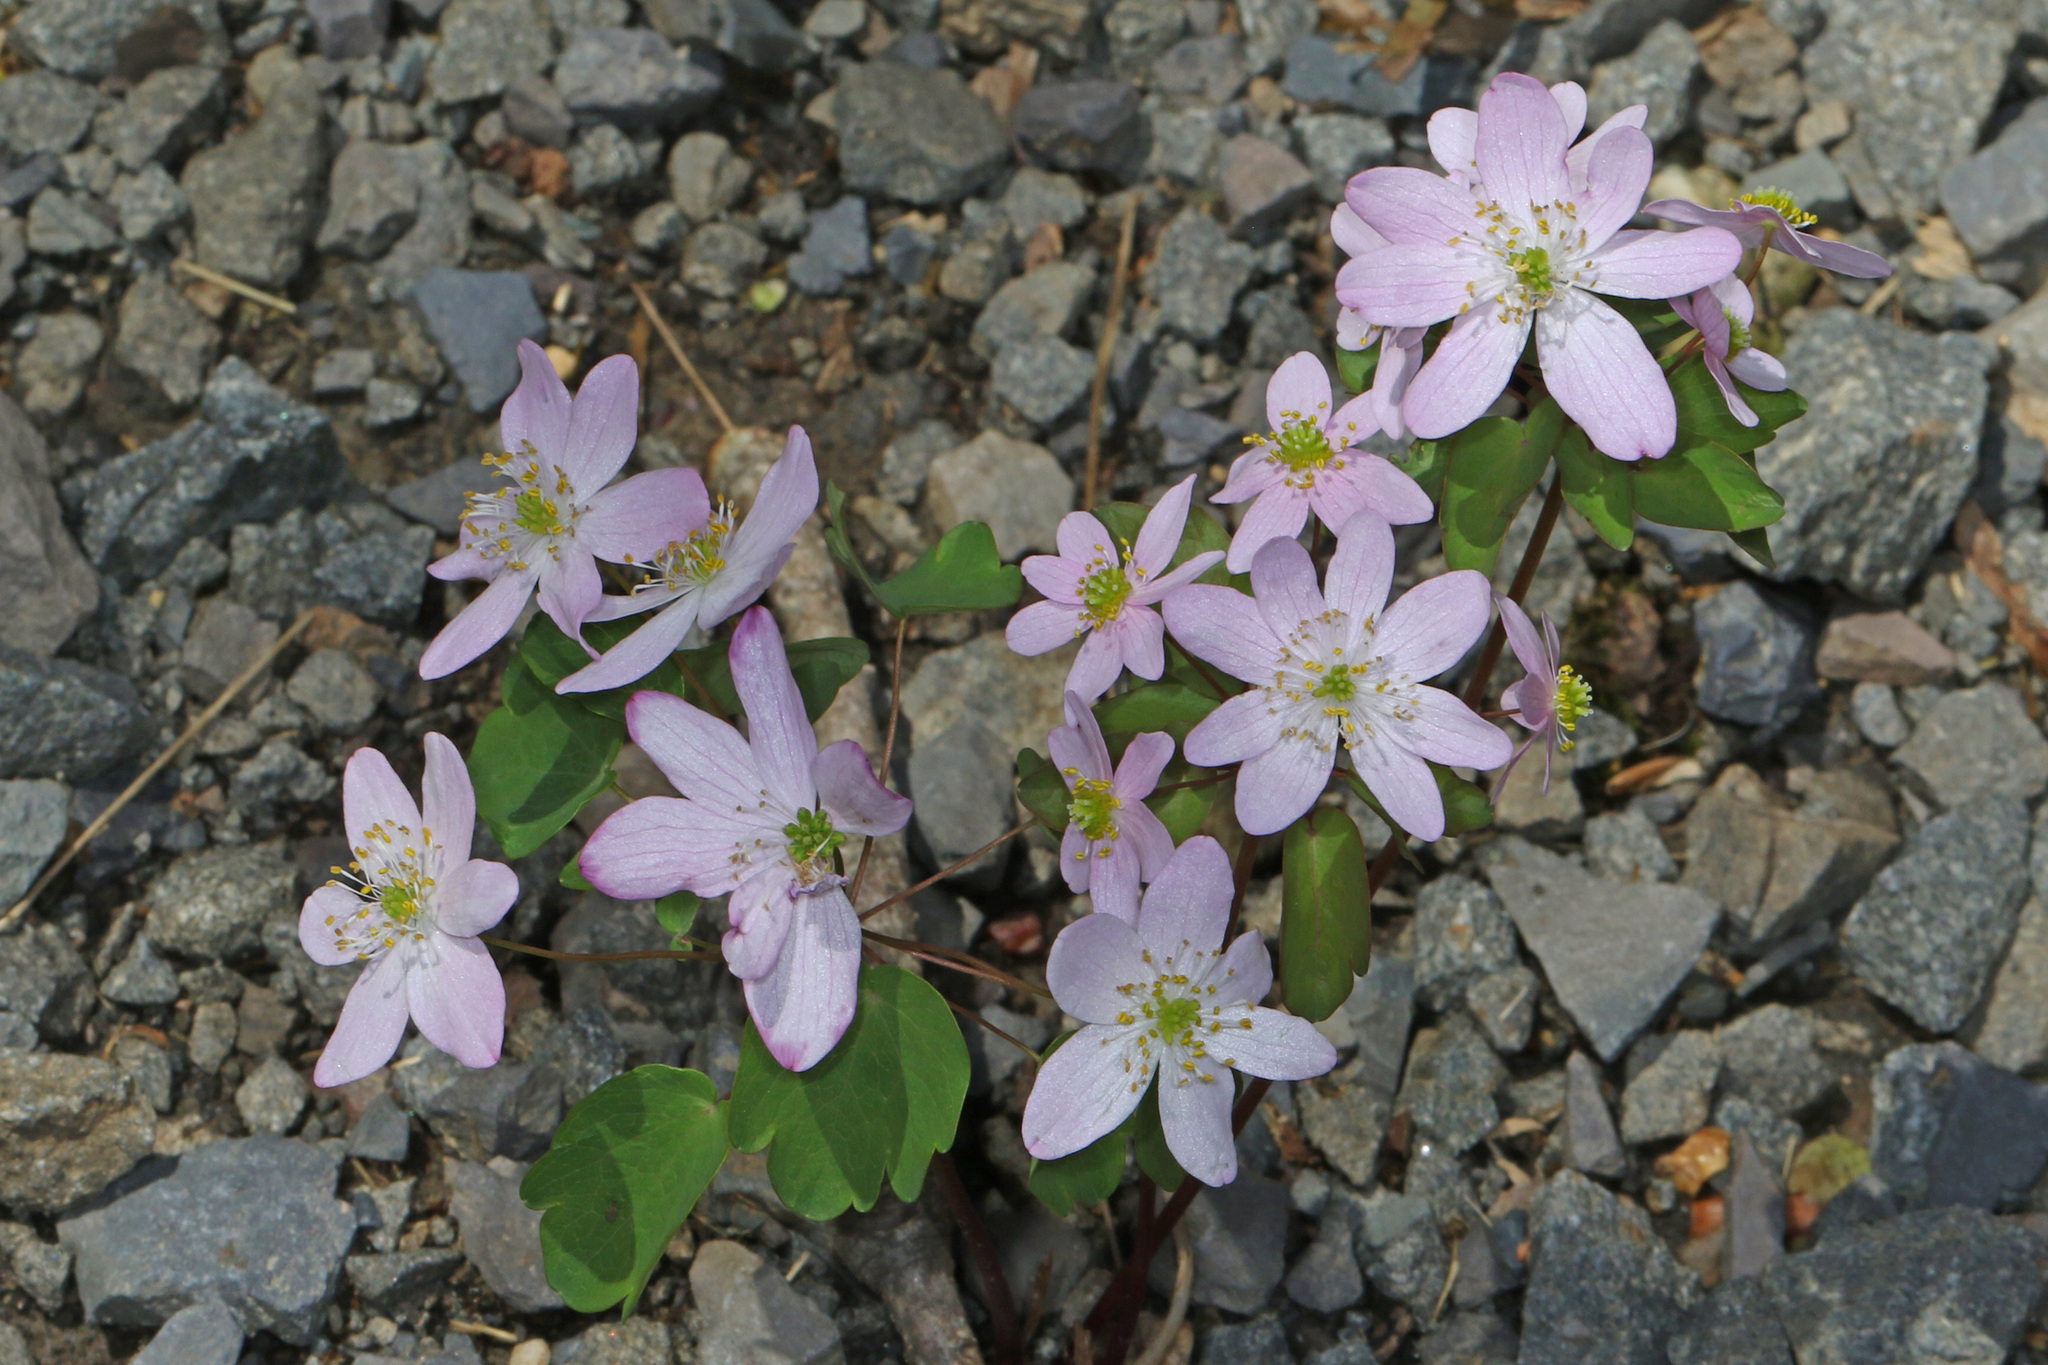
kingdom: Plantae
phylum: Tracheophyta
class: Magnoliopsida
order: Ranunculales
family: Ranunculaceae
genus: Thalictrum
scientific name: Thalictrum thalictroides
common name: Rue-anemone
